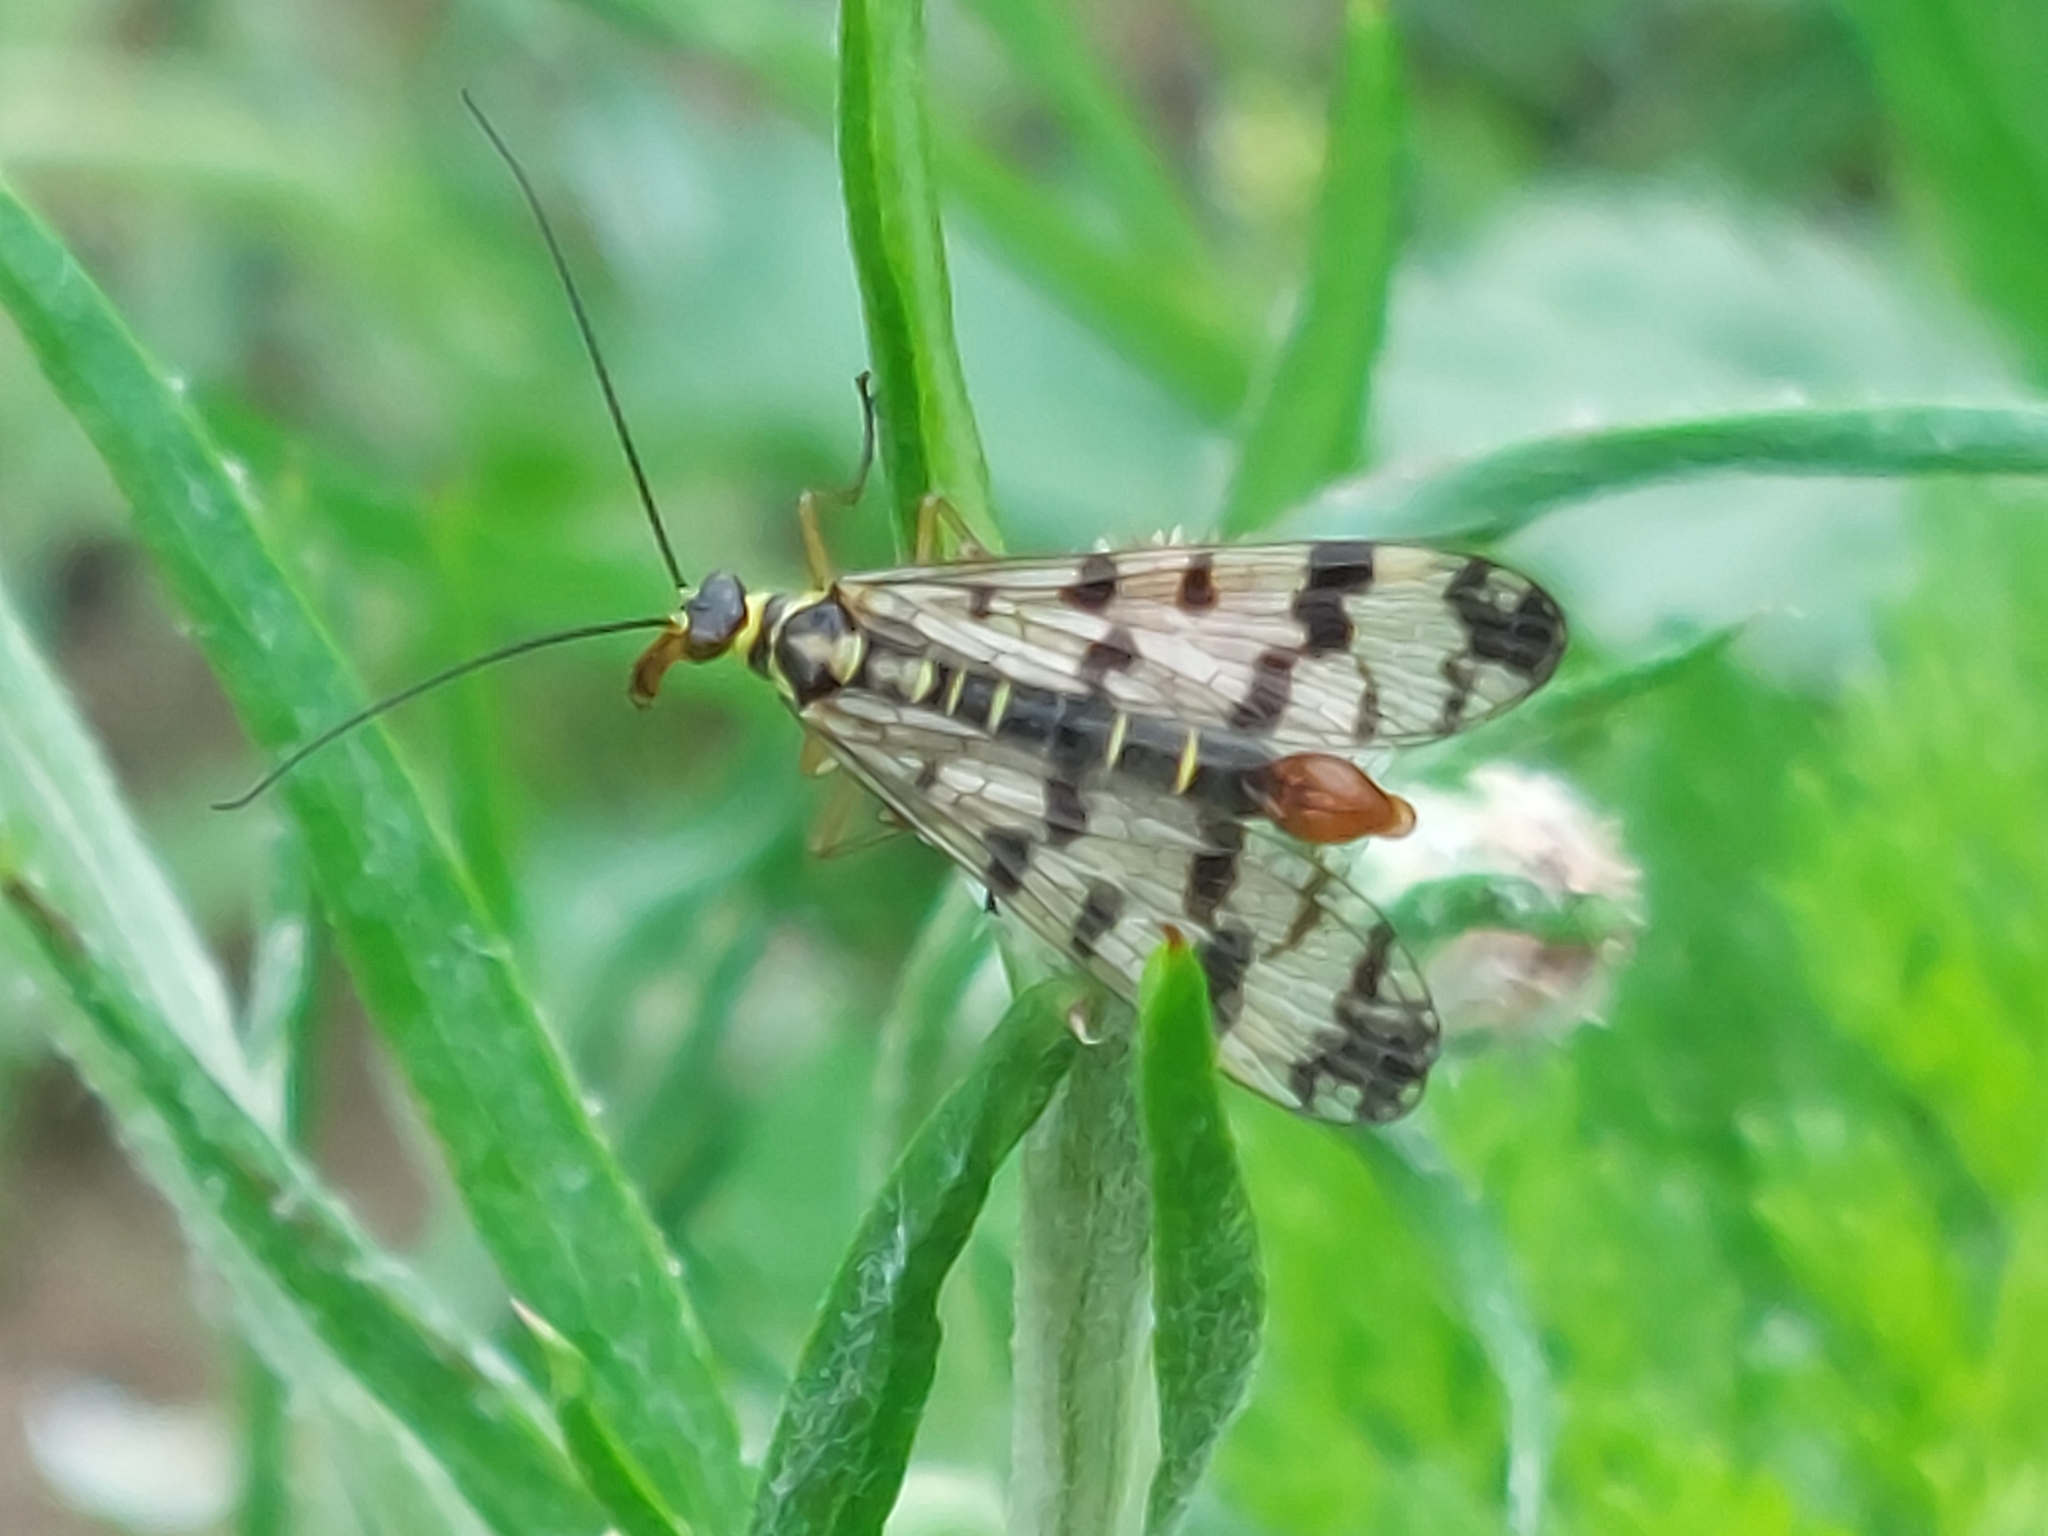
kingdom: Animalia
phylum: Arthropoda
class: Insecta
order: Mecoptera
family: Panorpidae
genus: Panorpa
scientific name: Panorpa communis
